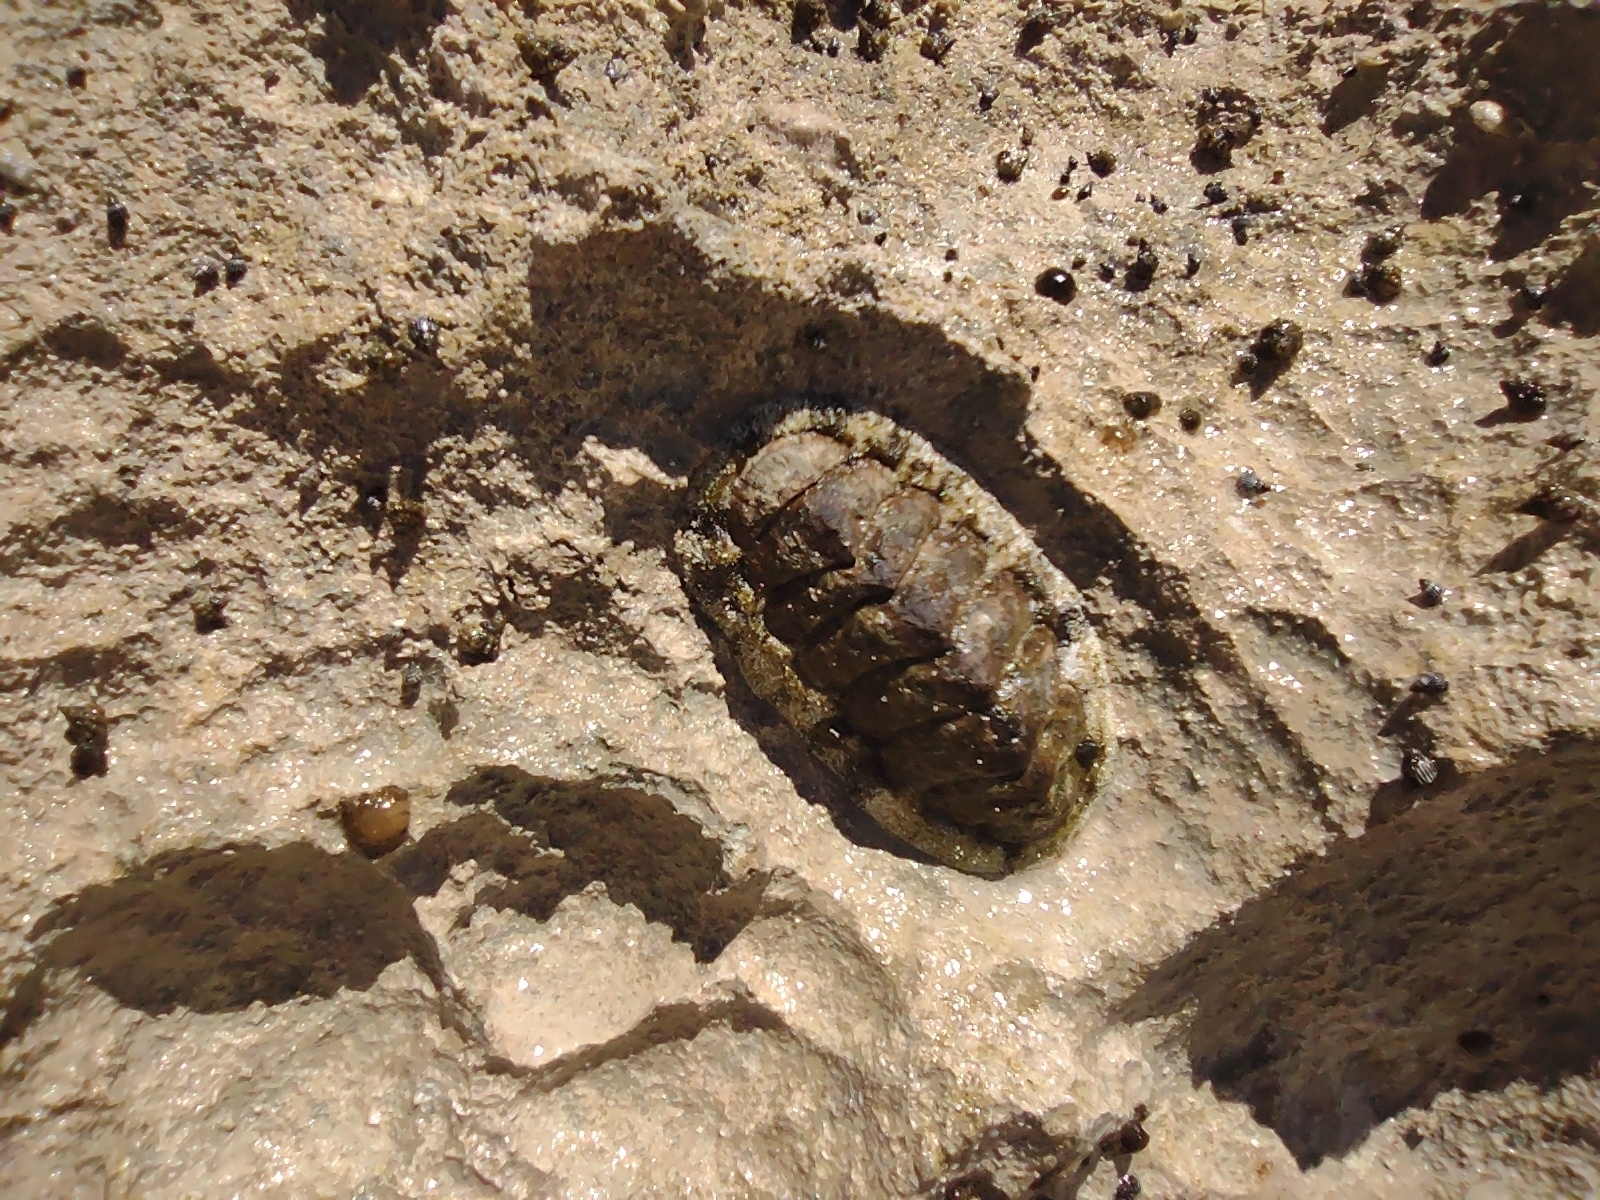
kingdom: Animalia
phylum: Mollusca
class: Polyplacophora
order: Chitonida
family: Chitonidae
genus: Acanthopleura
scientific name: Acanthopleura granulata
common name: West indian fuzzy chiton
